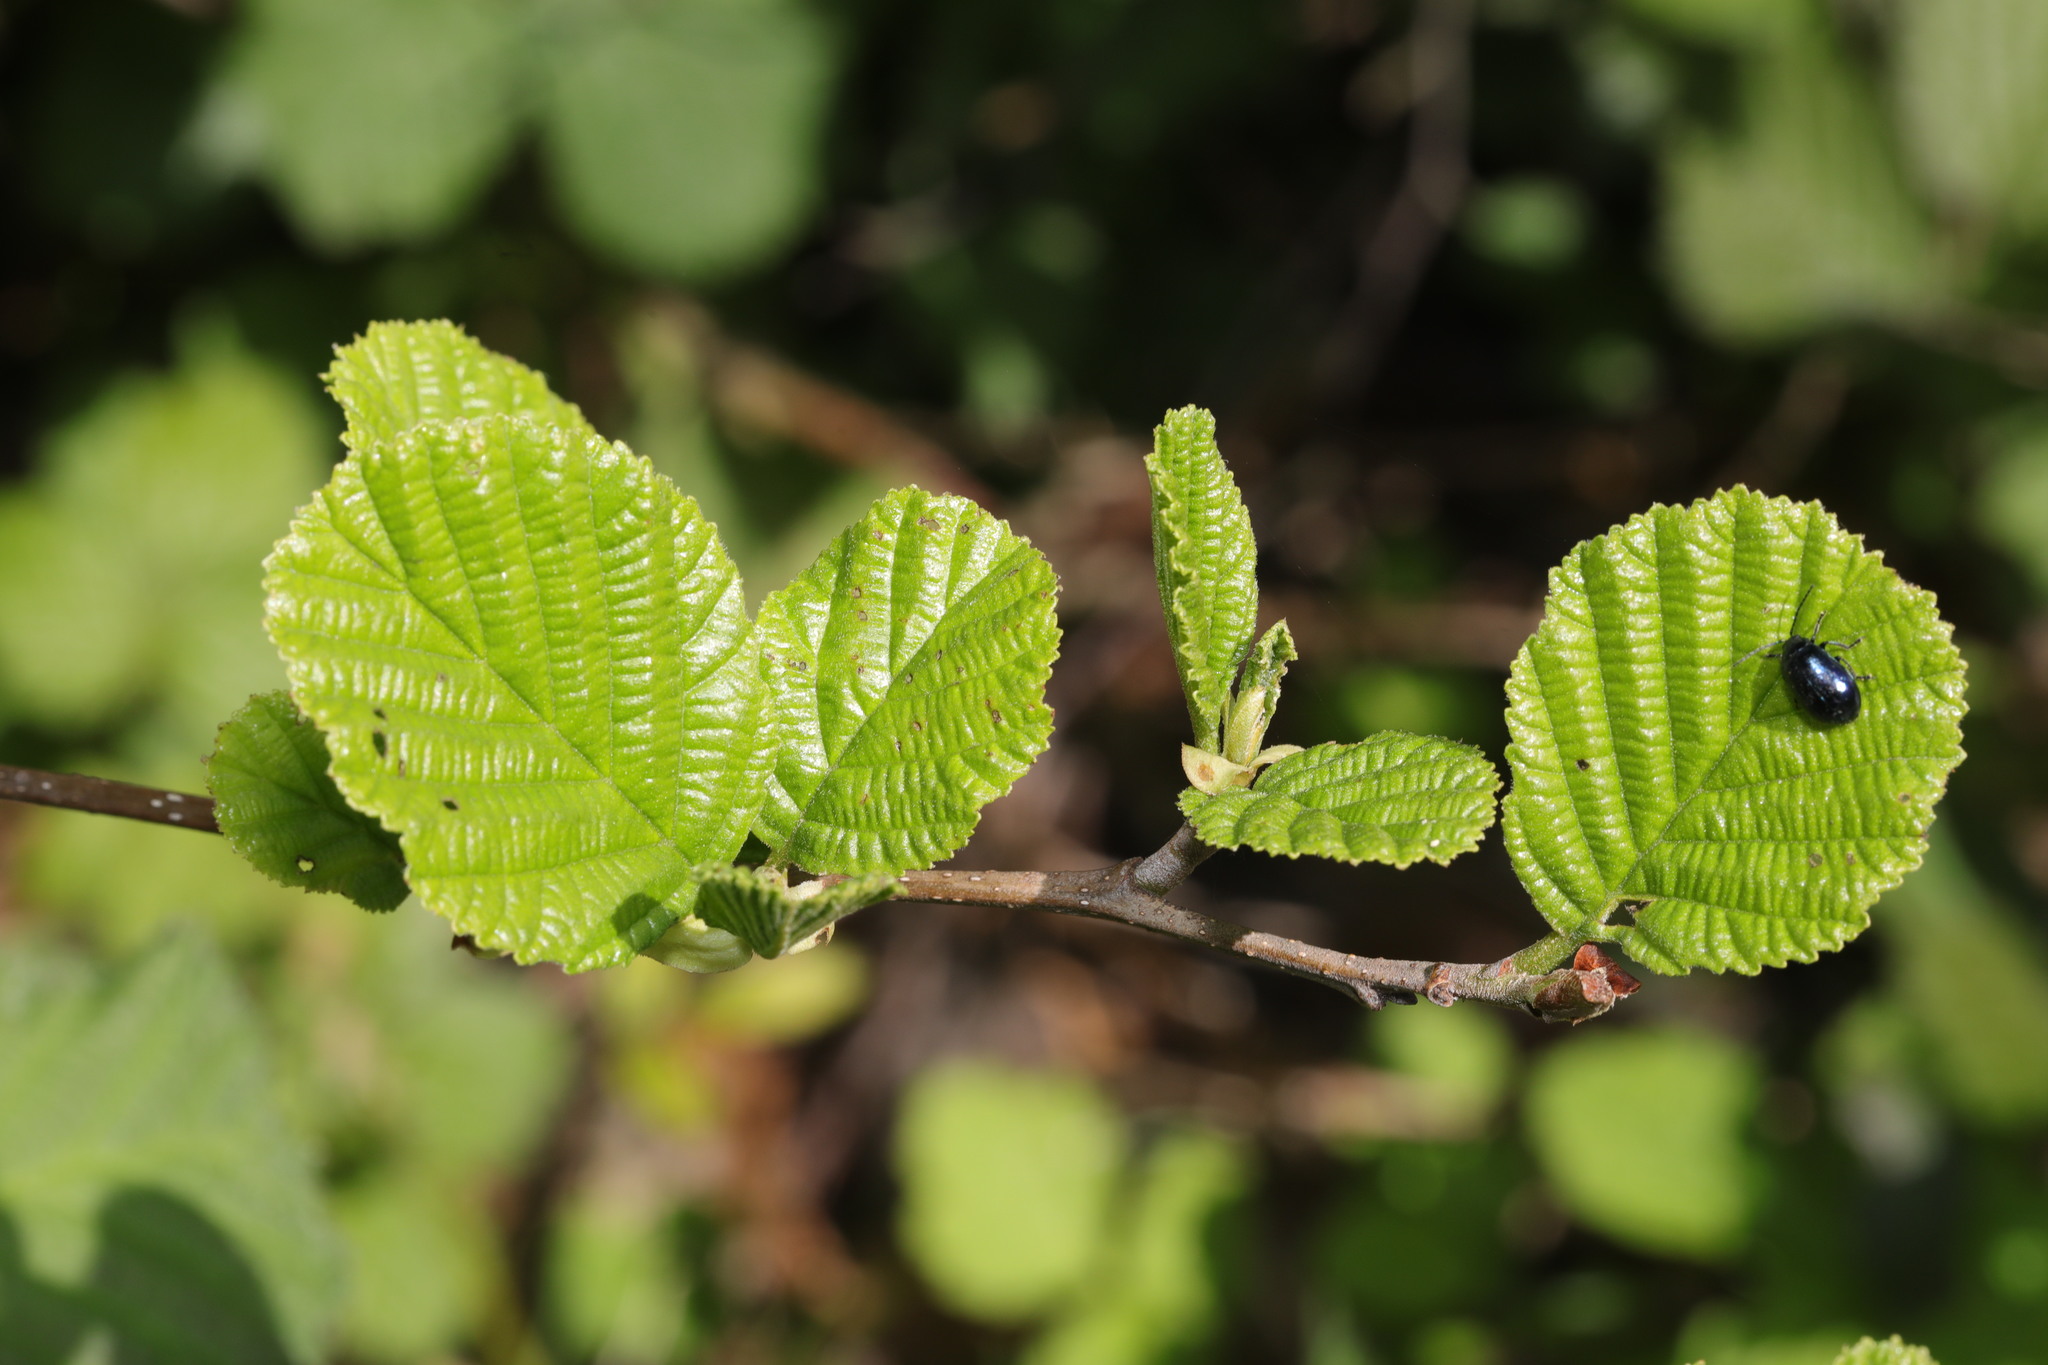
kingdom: Plantae
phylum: Tracheophyta
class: Magnoliopsida
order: Fagales
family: Betulaceae
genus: Alnus
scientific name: Alnus glutinosa
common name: Black alder
